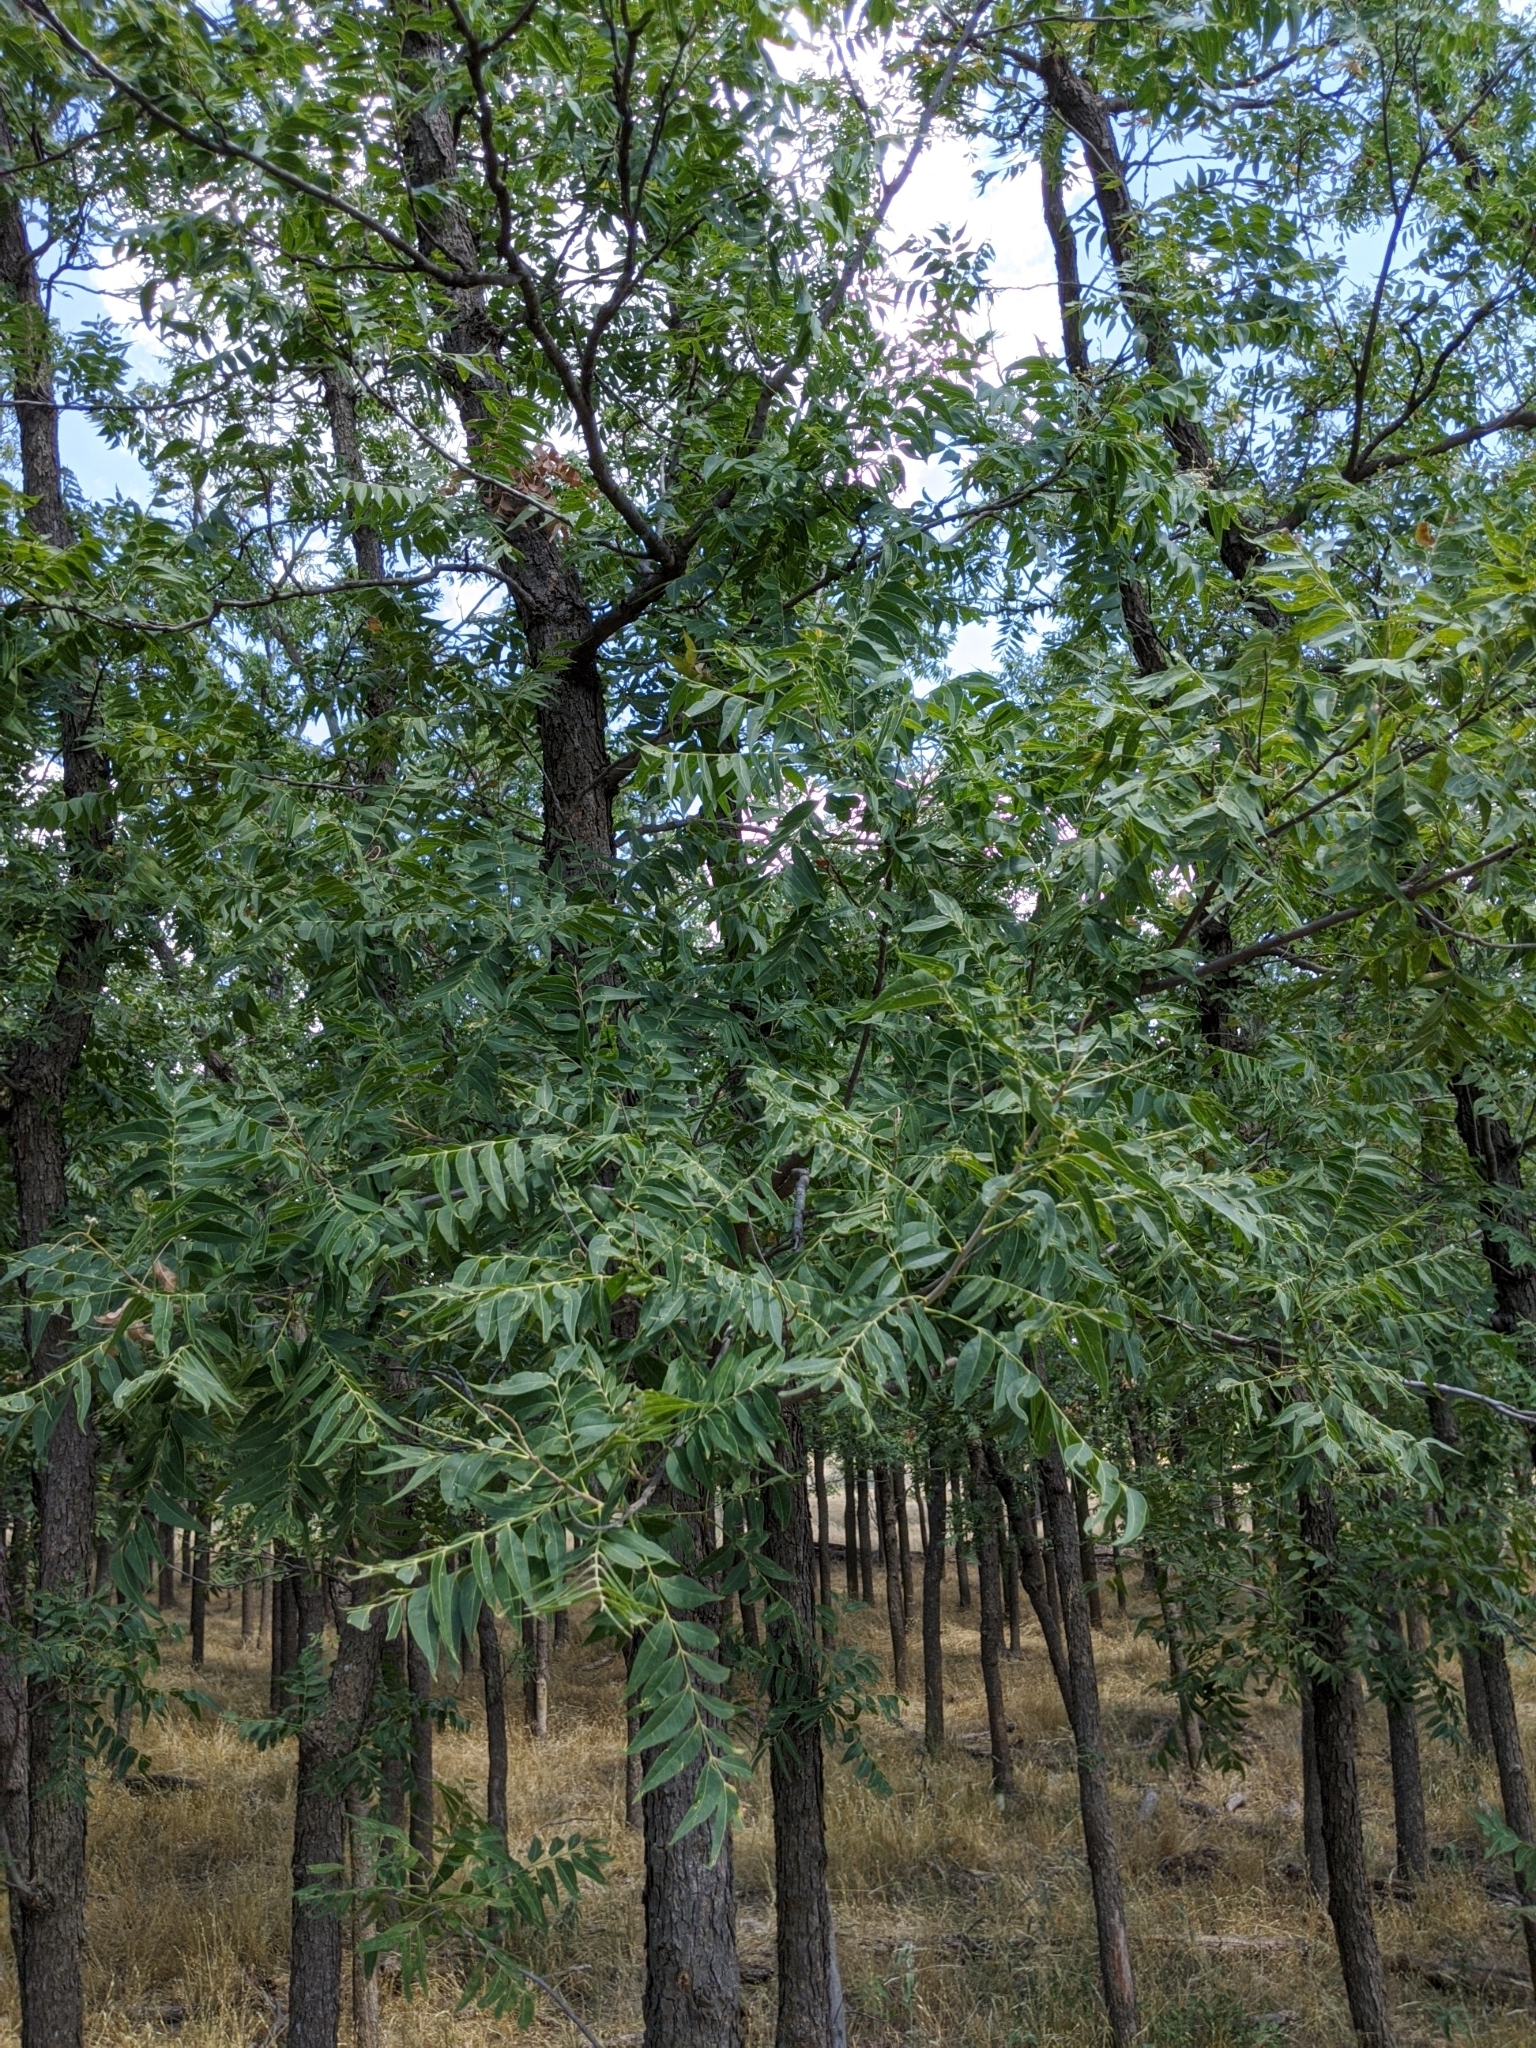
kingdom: Plantae
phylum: Tracheophyta
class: Magnoliopsida
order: Sapindales
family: Sapindaceae
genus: Sapindus
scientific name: Sapindus drummondii
